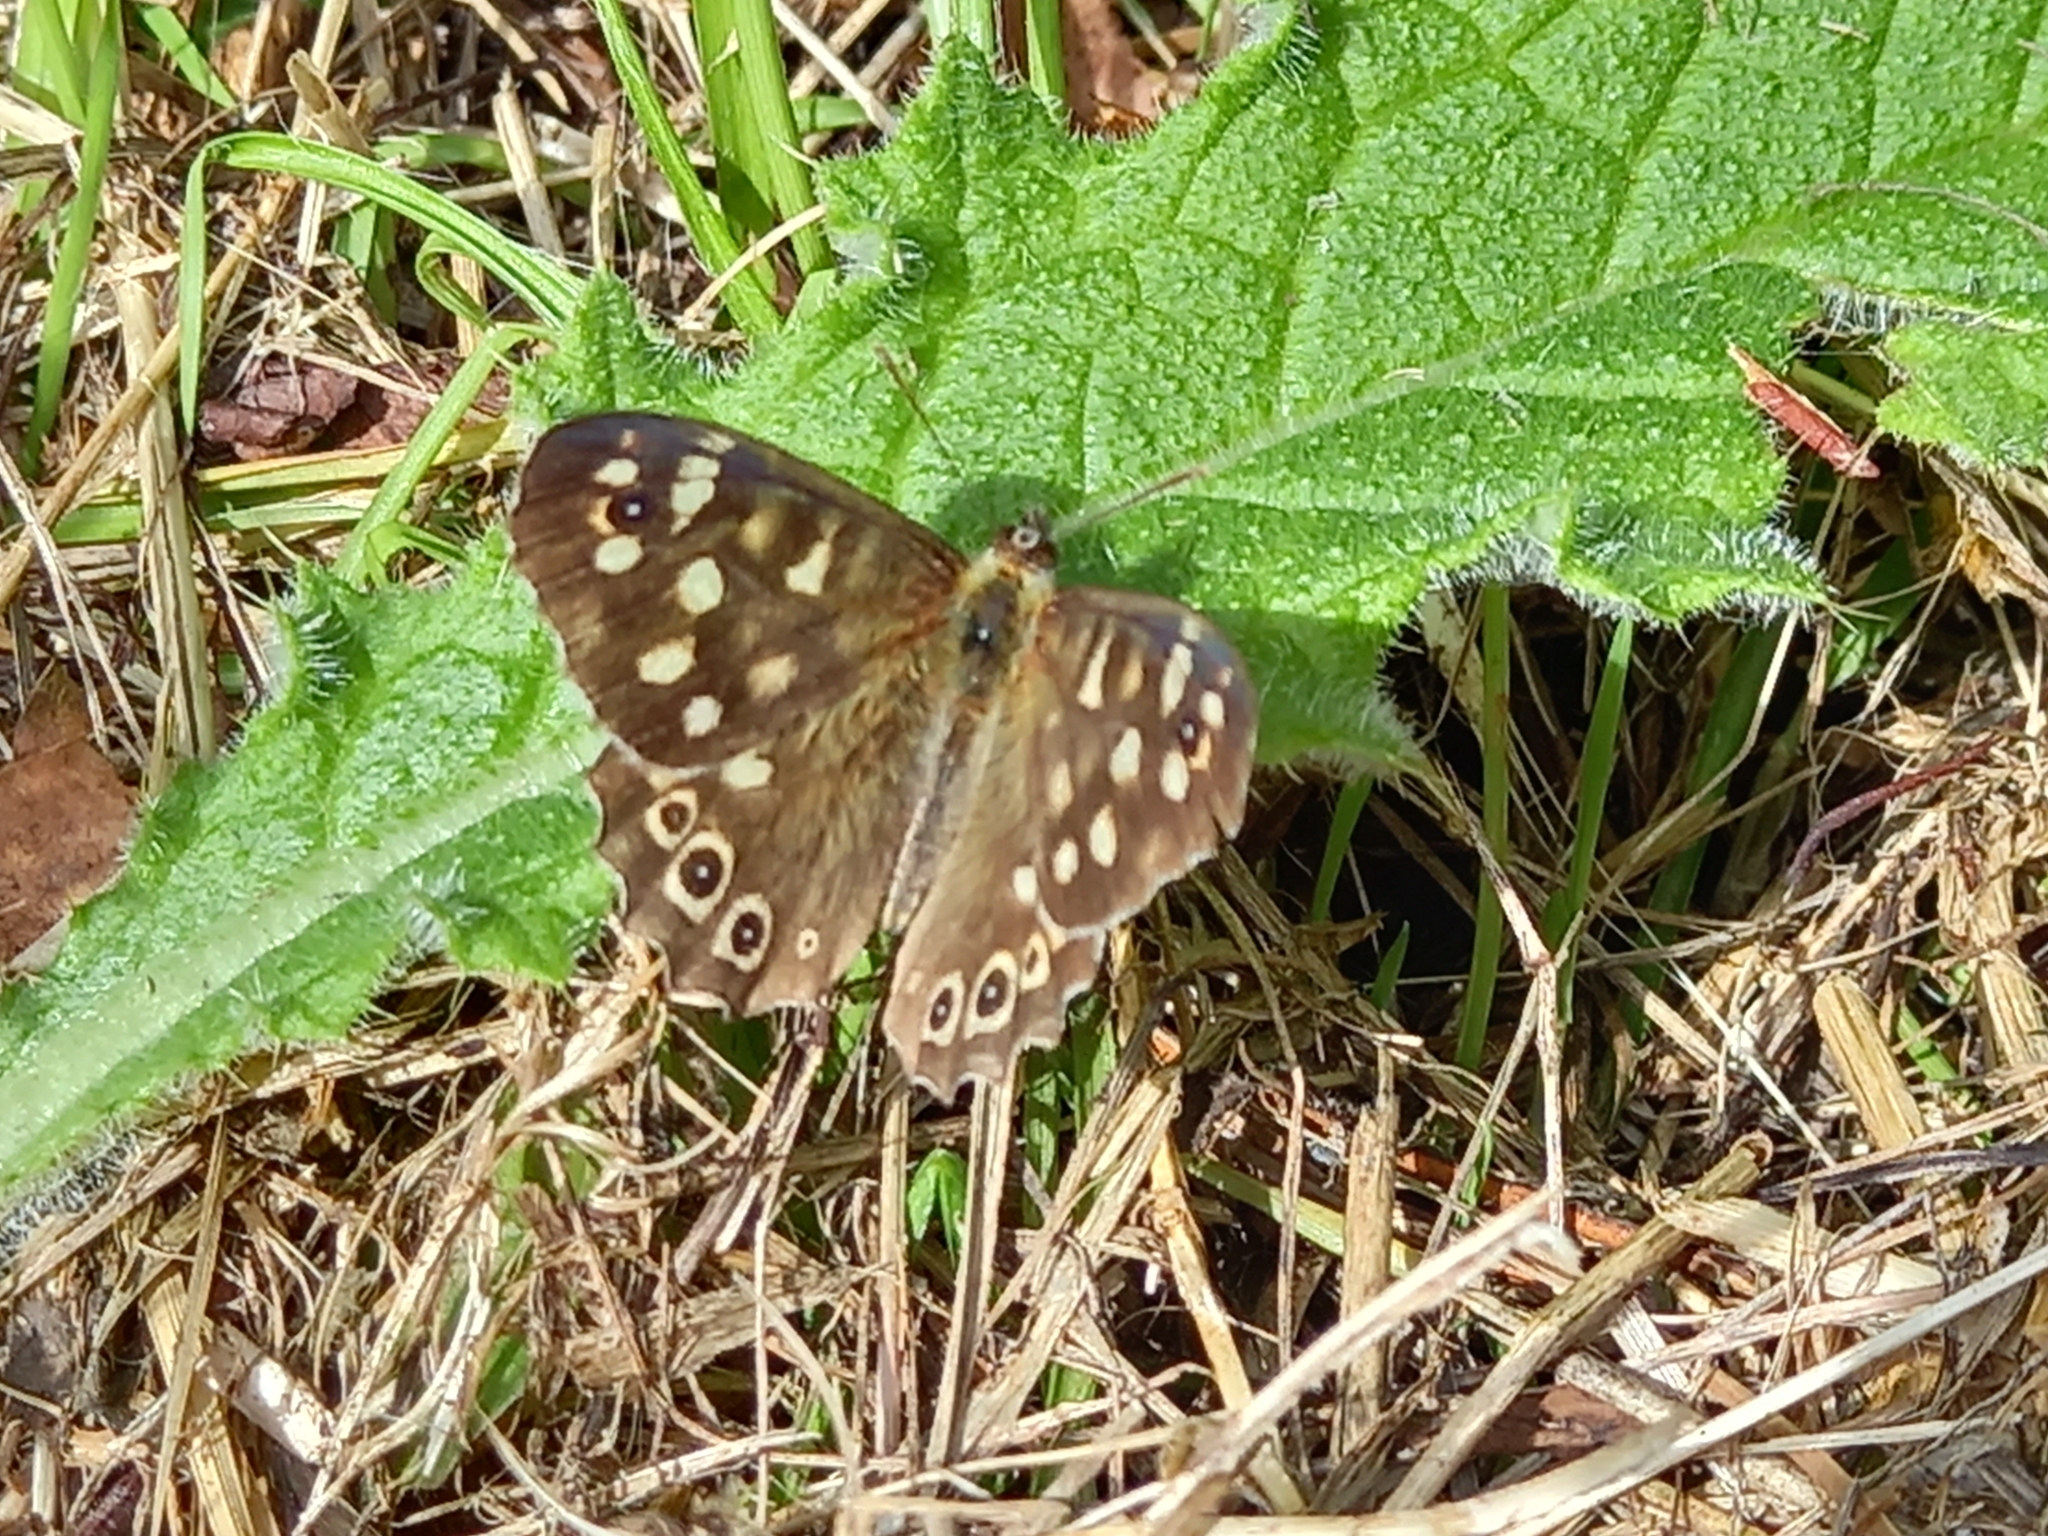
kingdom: Animalia
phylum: Arthropoda
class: Insecta
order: Lepidoptera
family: Nymphalidae
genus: Pararge
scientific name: Pararge aegeria
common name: Speckled wood
